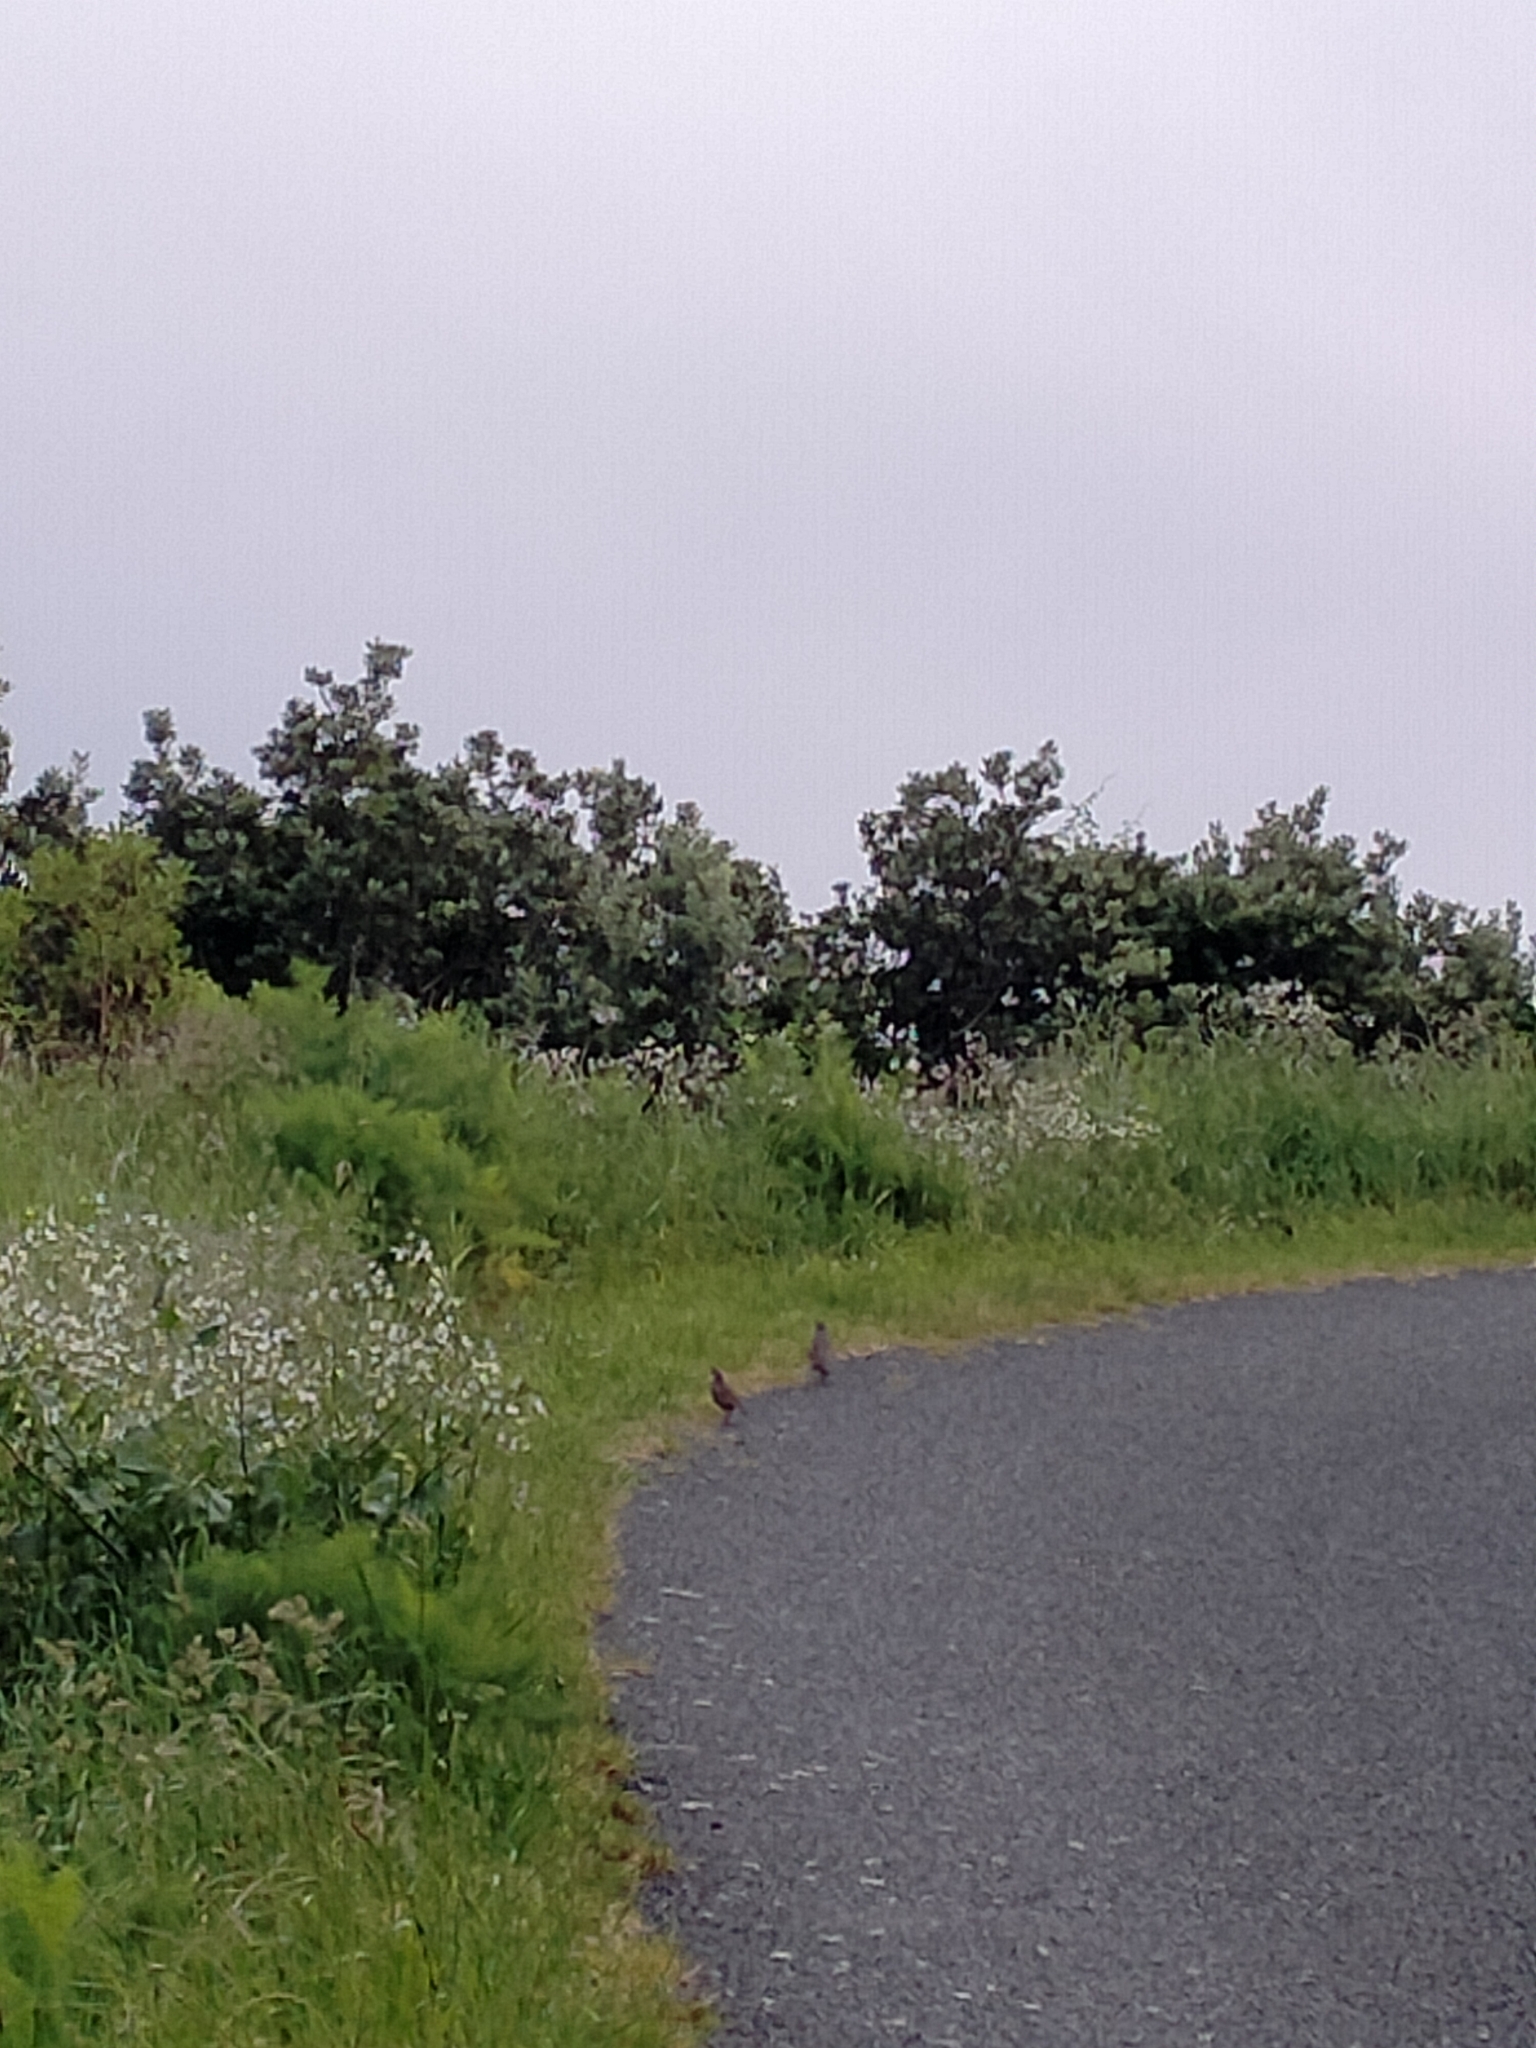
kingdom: Animalia
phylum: Chordata
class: Aves
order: Galliformes
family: Odontophoridae
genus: Callipepla
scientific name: Callipepla californica
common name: California quail
